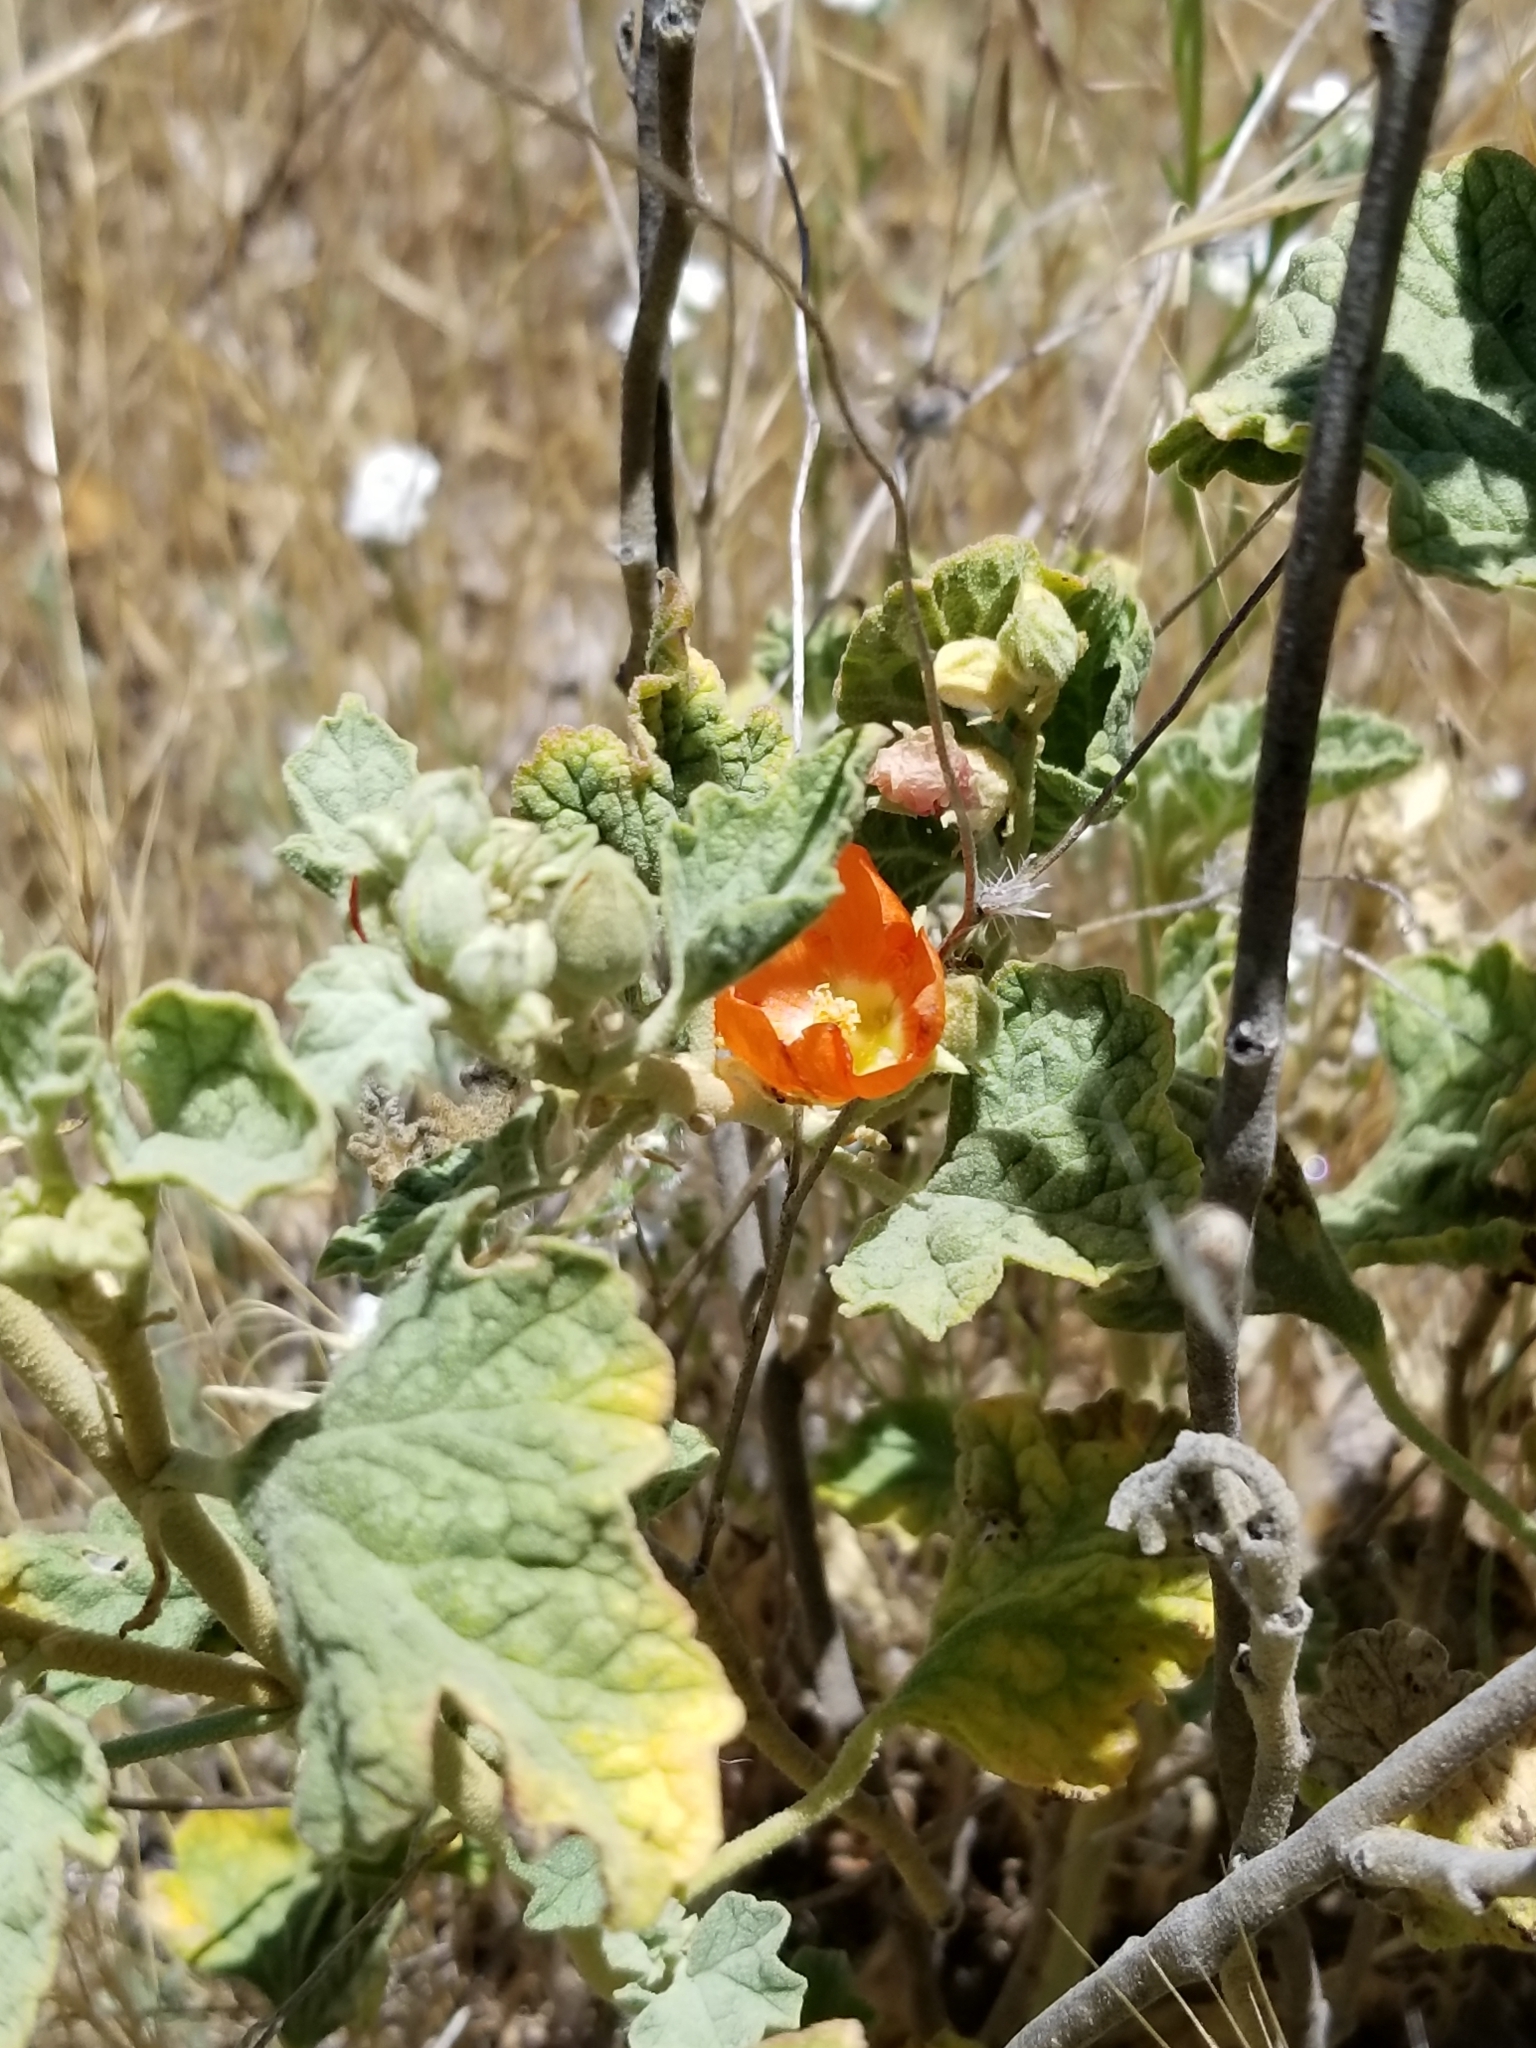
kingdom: Plantae
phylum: Tracheophyta
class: Magnoliopsida
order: Malvales
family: Malvaceae
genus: Sphaeralcea
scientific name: Sphaeralcea ambigua
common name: Apricot globe-mallow
